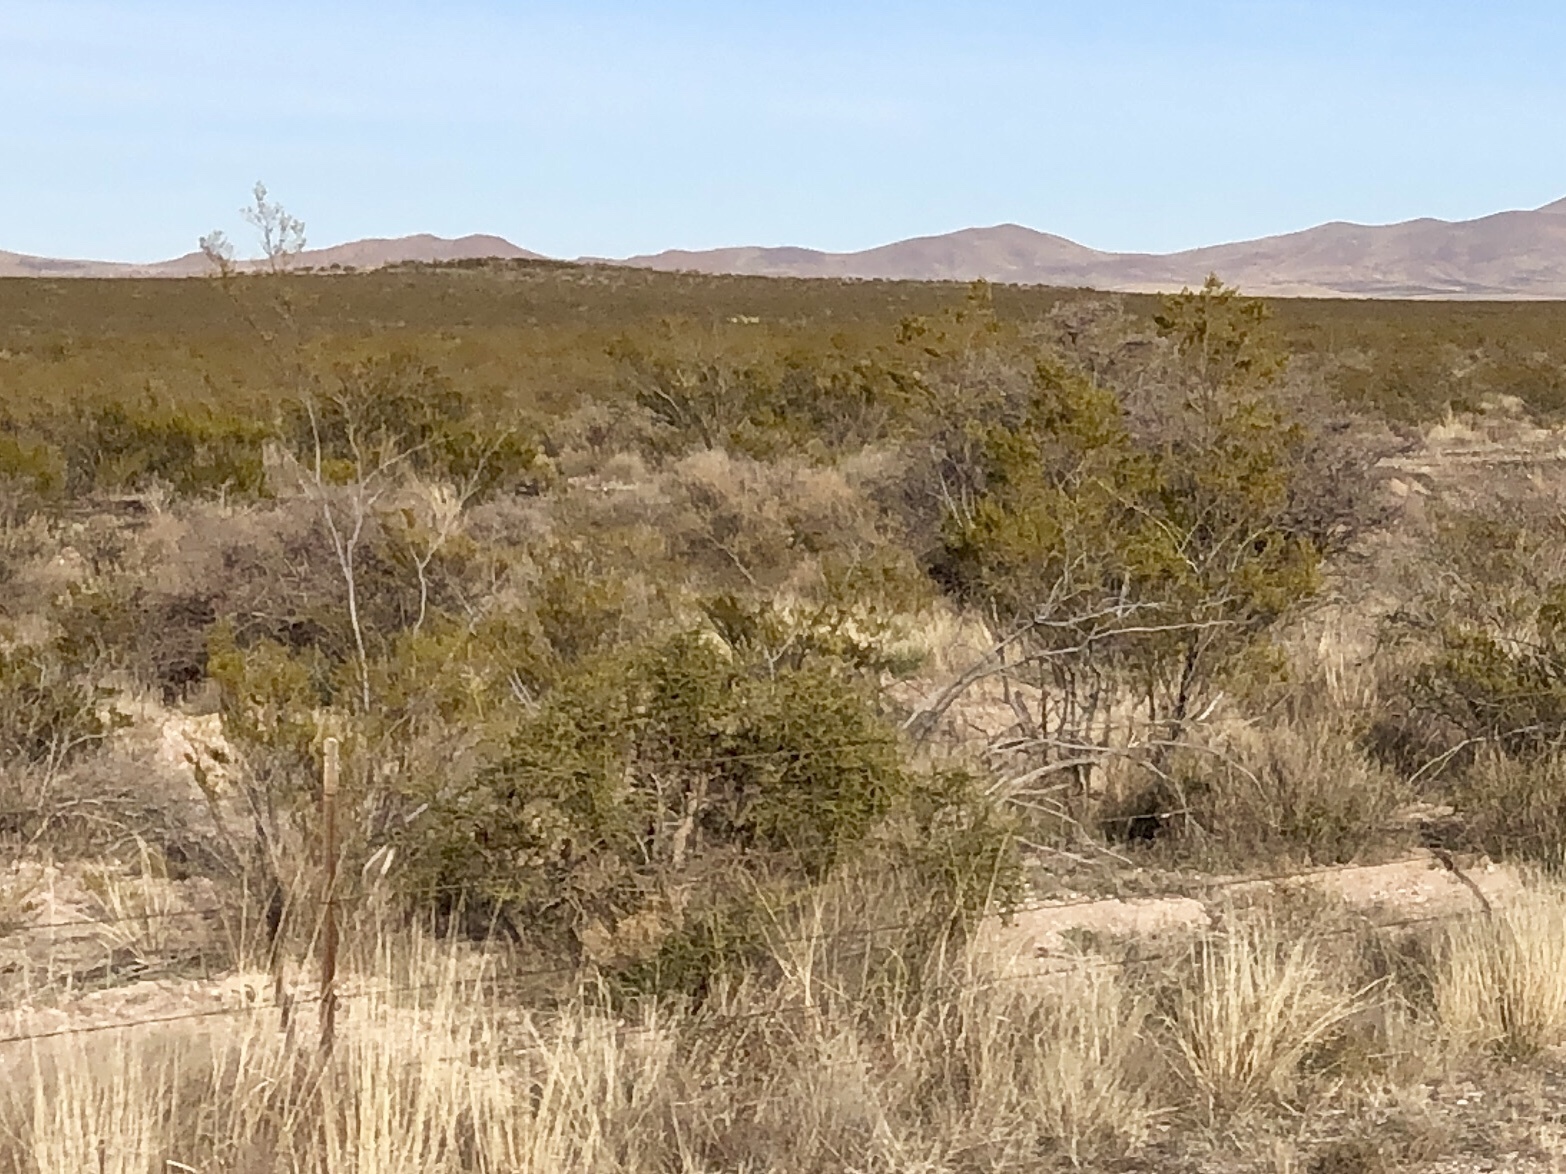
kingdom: Plantae
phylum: Tracheophyta
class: Magnoliopsida
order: Zygophyllales
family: Zygophyllaceae
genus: Larrea
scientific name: Larrea tridentata
